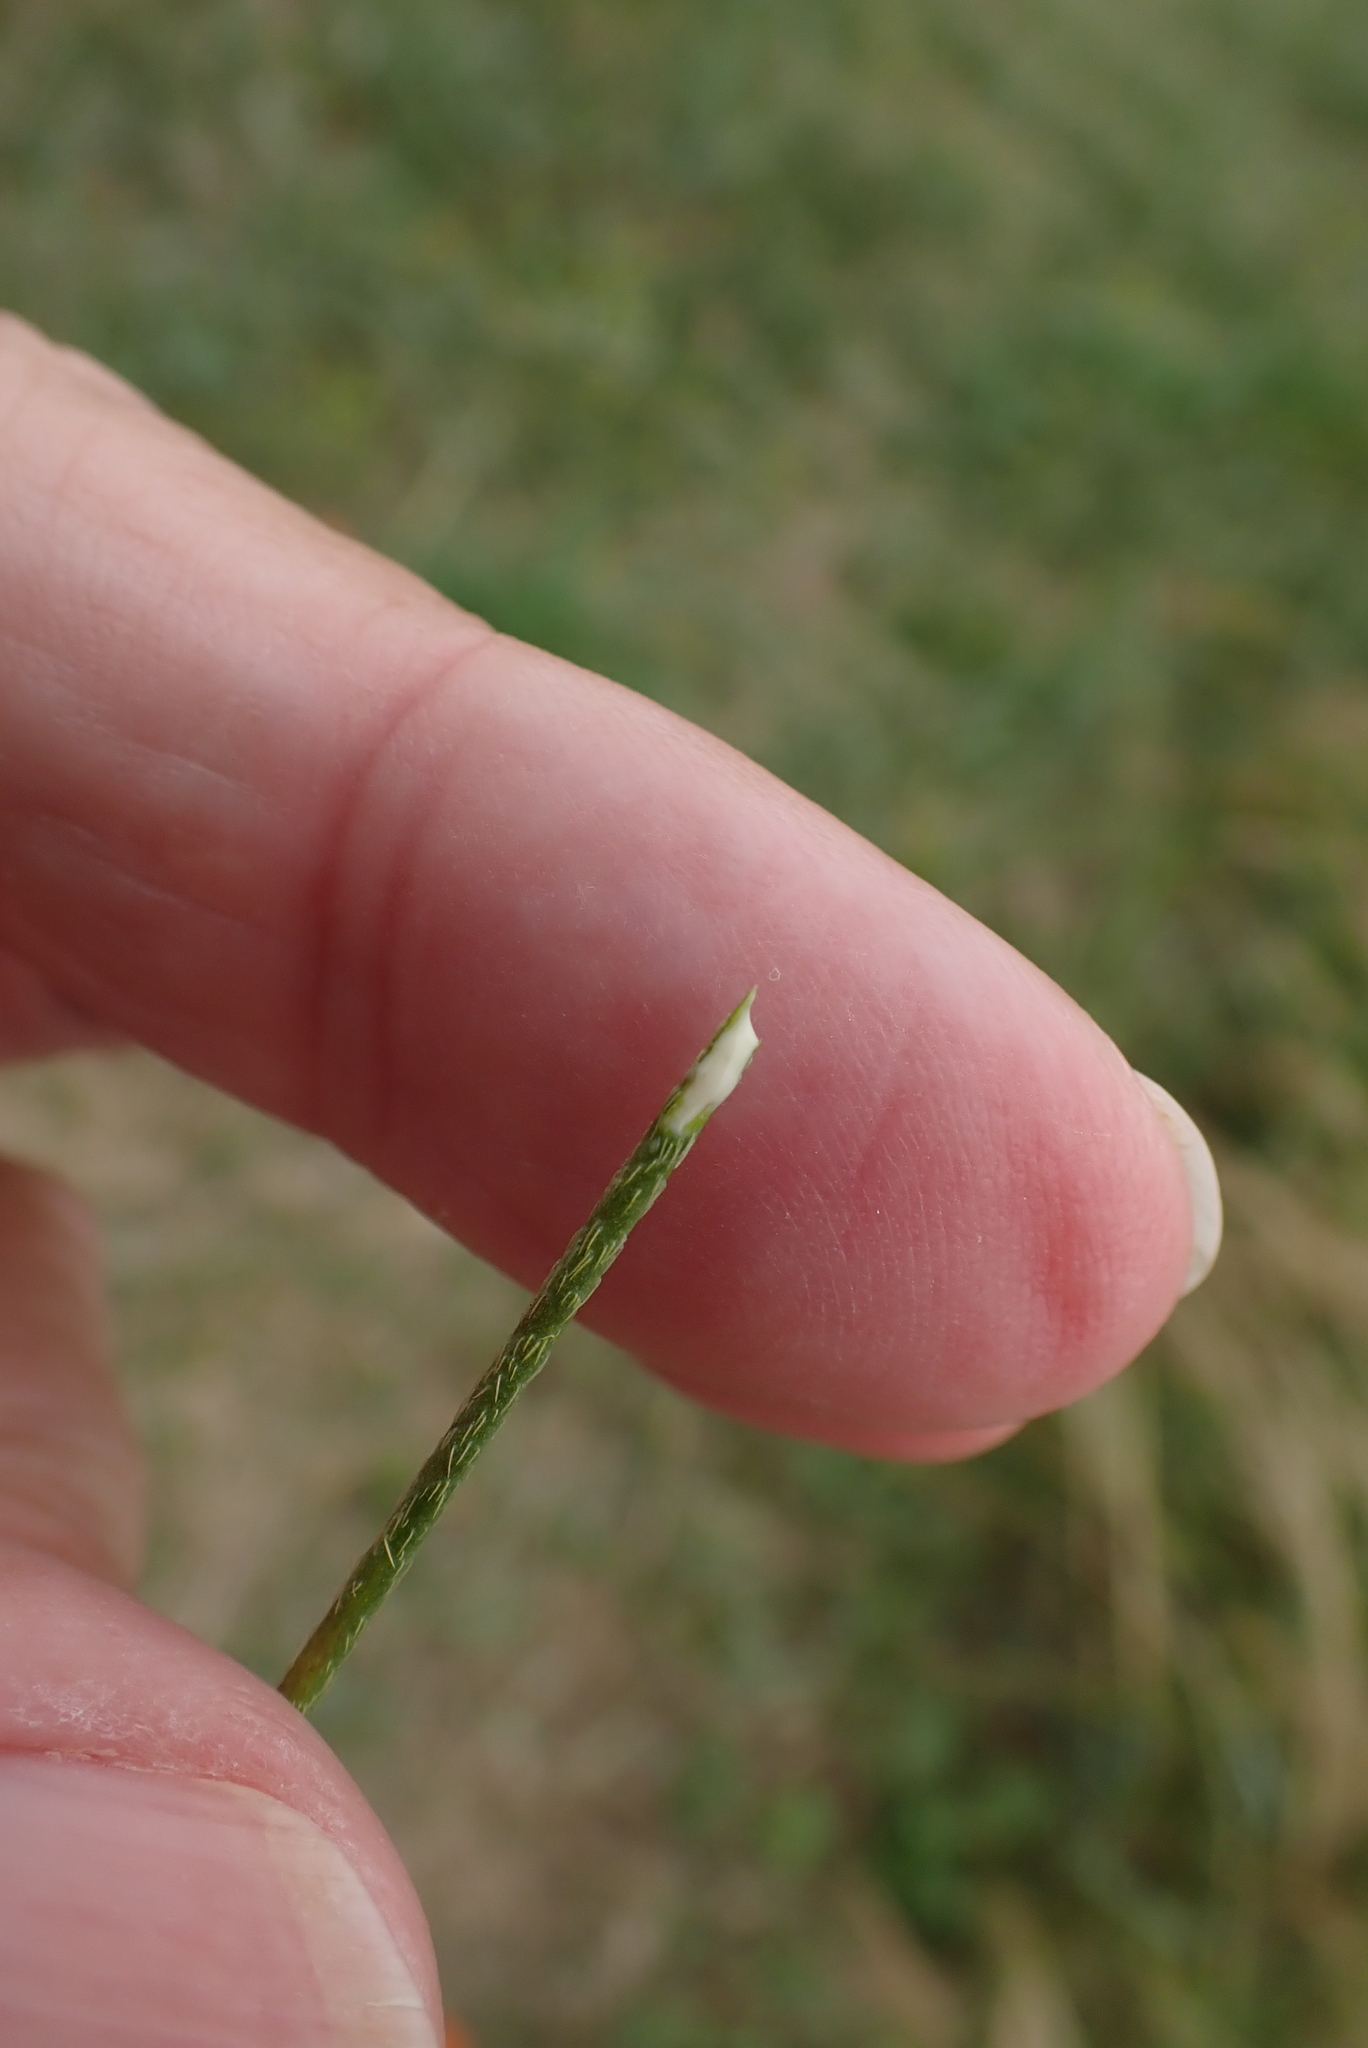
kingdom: Plantae
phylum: Tracheophyta
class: Magnoliopsida
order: Ranunculales
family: Papaveraceae
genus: Papaver
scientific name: Papaver dubium
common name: Long-headed poppy
